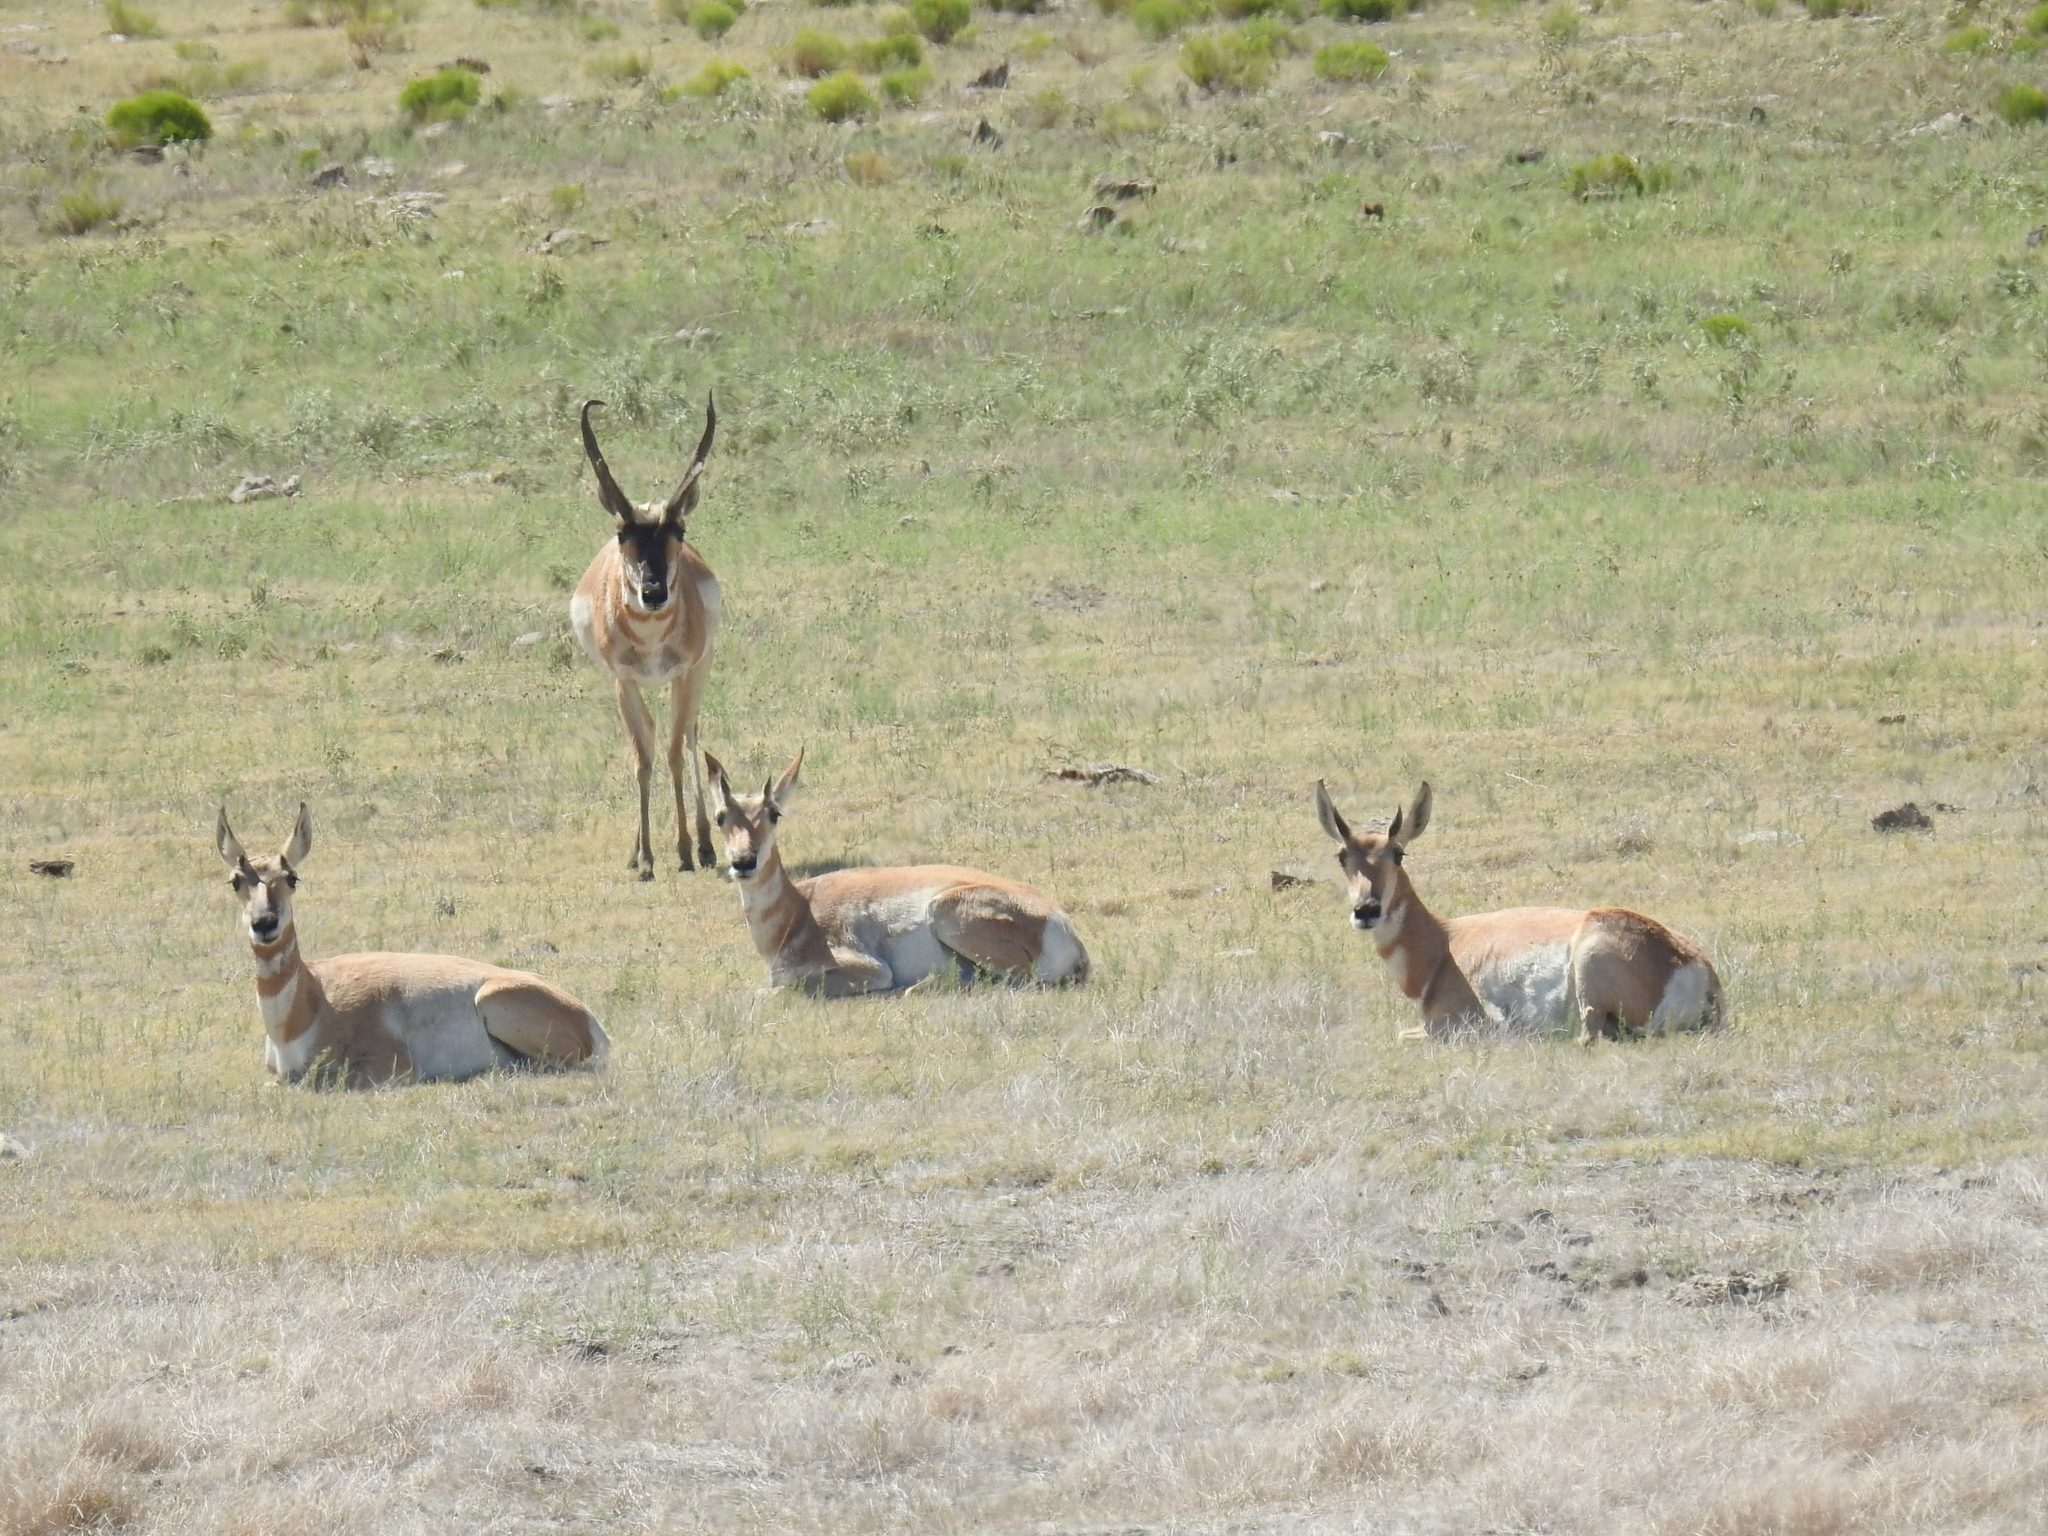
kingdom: Animalia
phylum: Chordata
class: Mammalia
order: Artiodactyla
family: Antilocapridae
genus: Antilocapra
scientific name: Antilocapra americana
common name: Pronghorn
